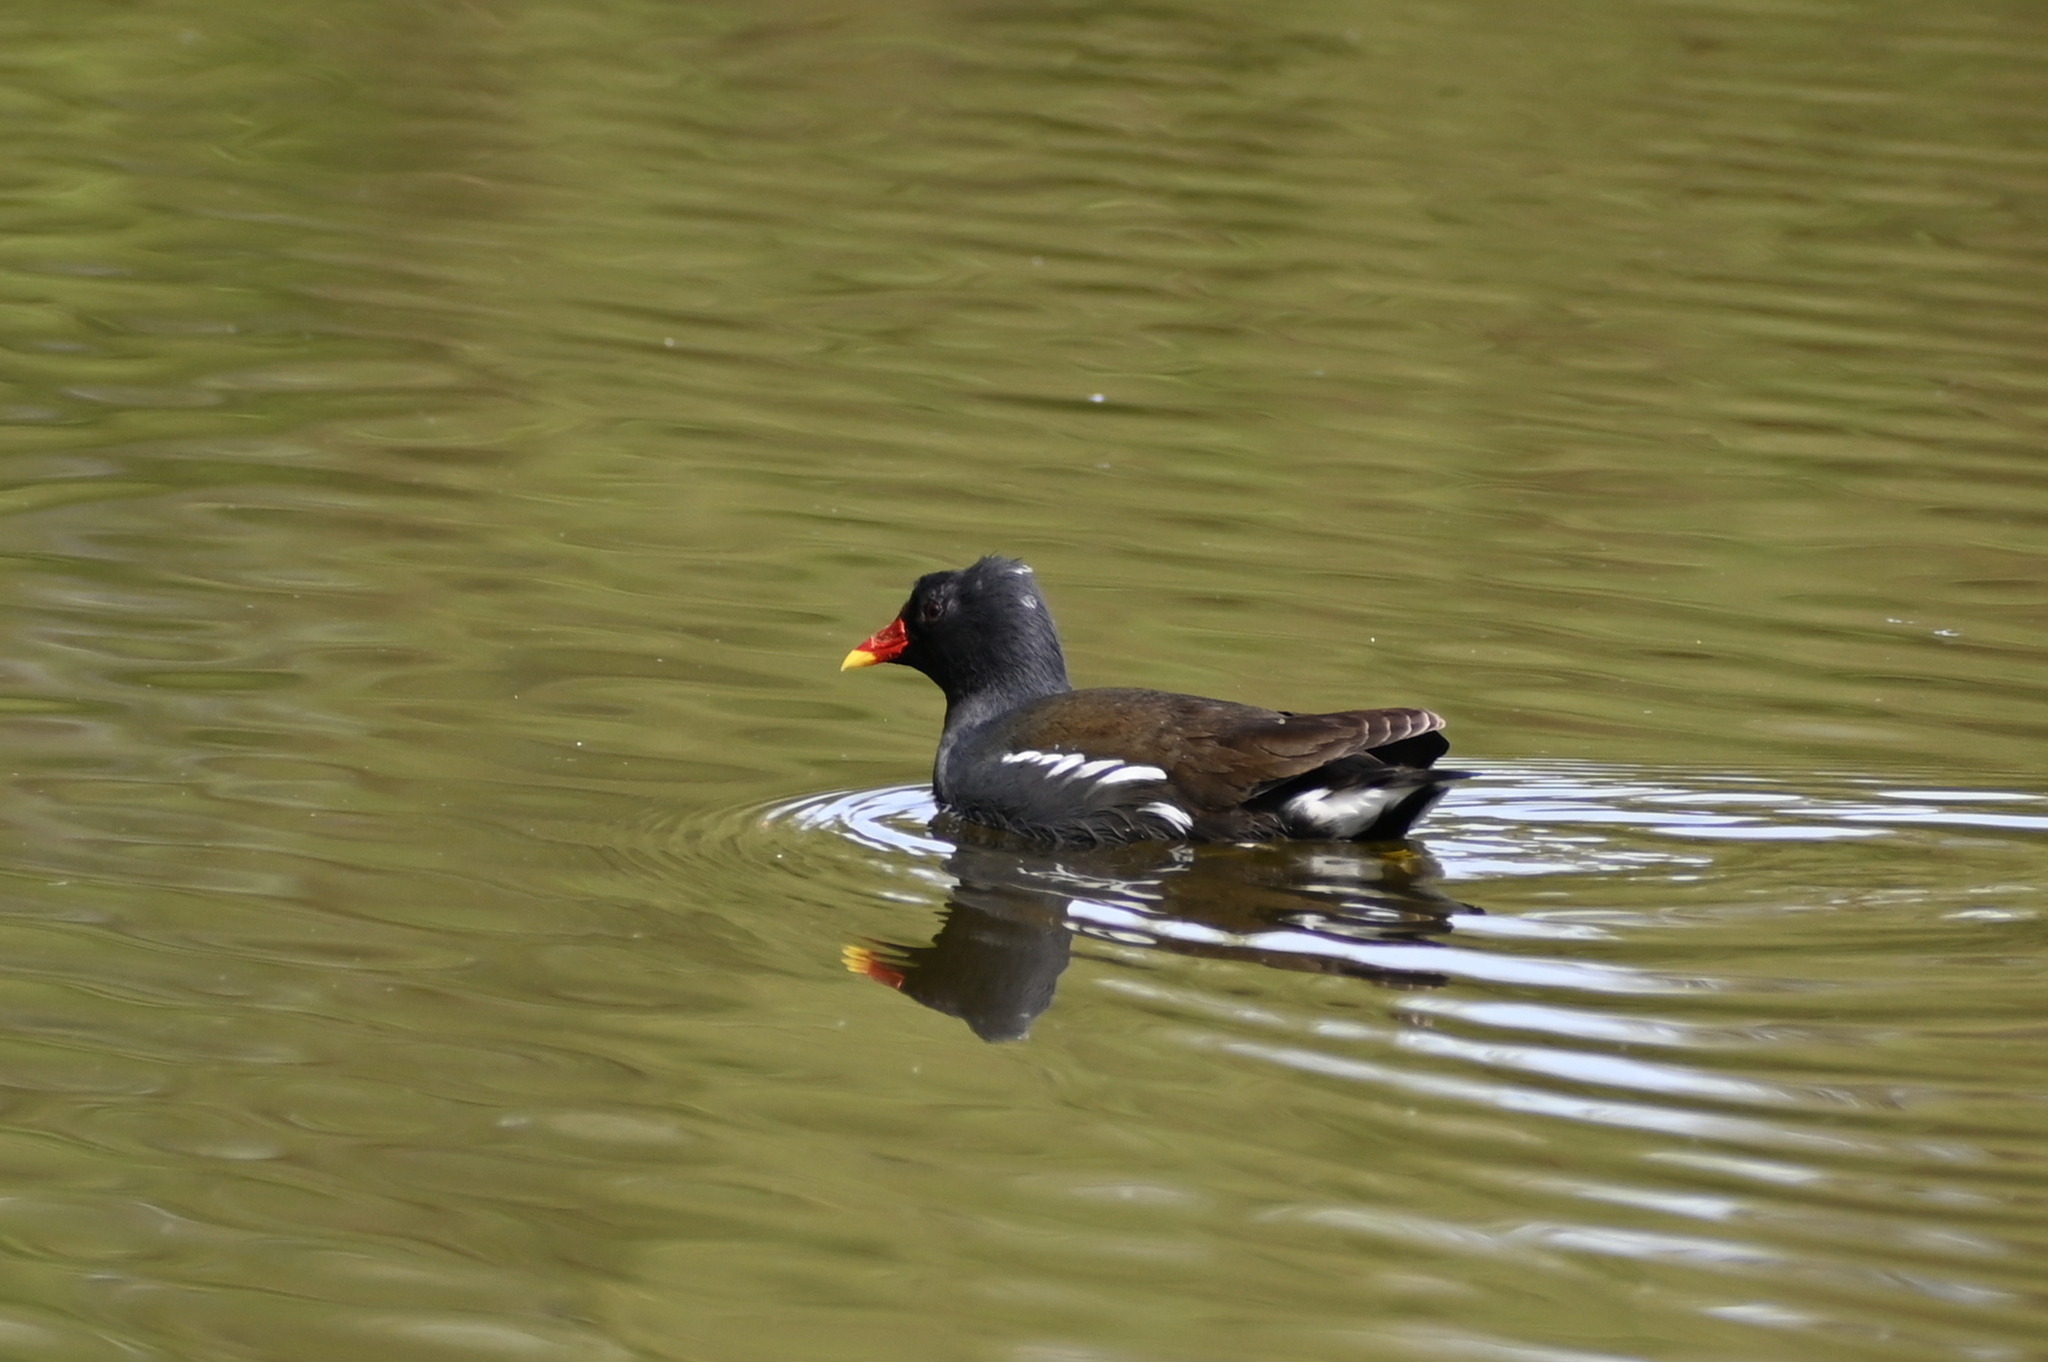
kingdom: Animalia
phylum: Chordata
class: Aves
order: Gruiformes
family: Rallidae
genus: Gallinula
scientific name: Gallinula chloropus
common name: Common moorhen
